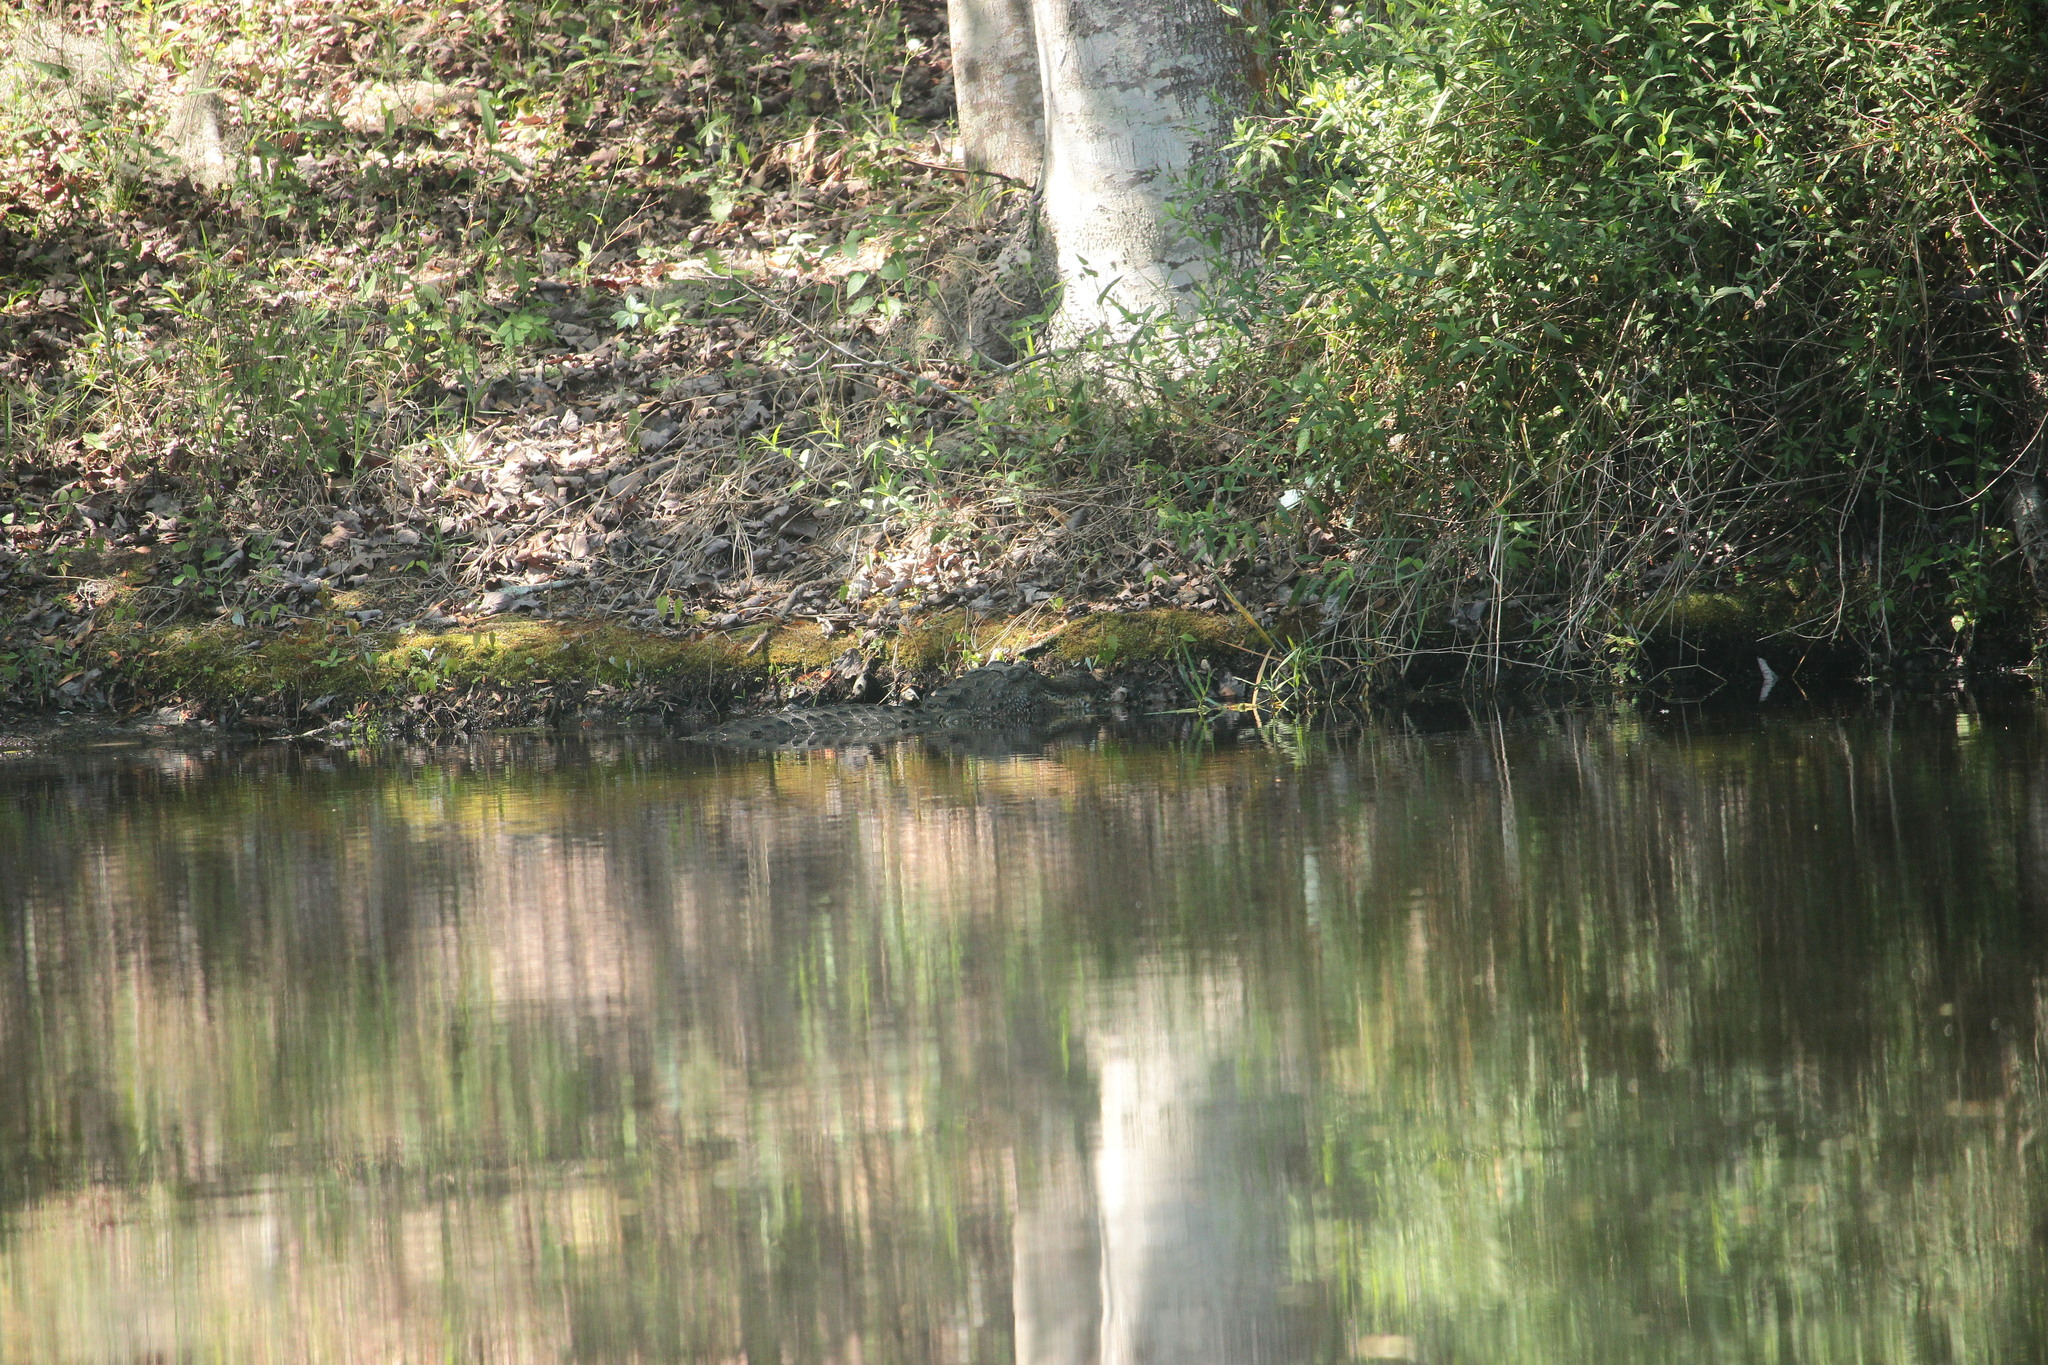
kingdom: Animalia
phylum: Chordata
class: Crocodylia
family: Alligatoridae
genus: Alligator
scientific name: Alligator mississippiensis
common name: American alligator
